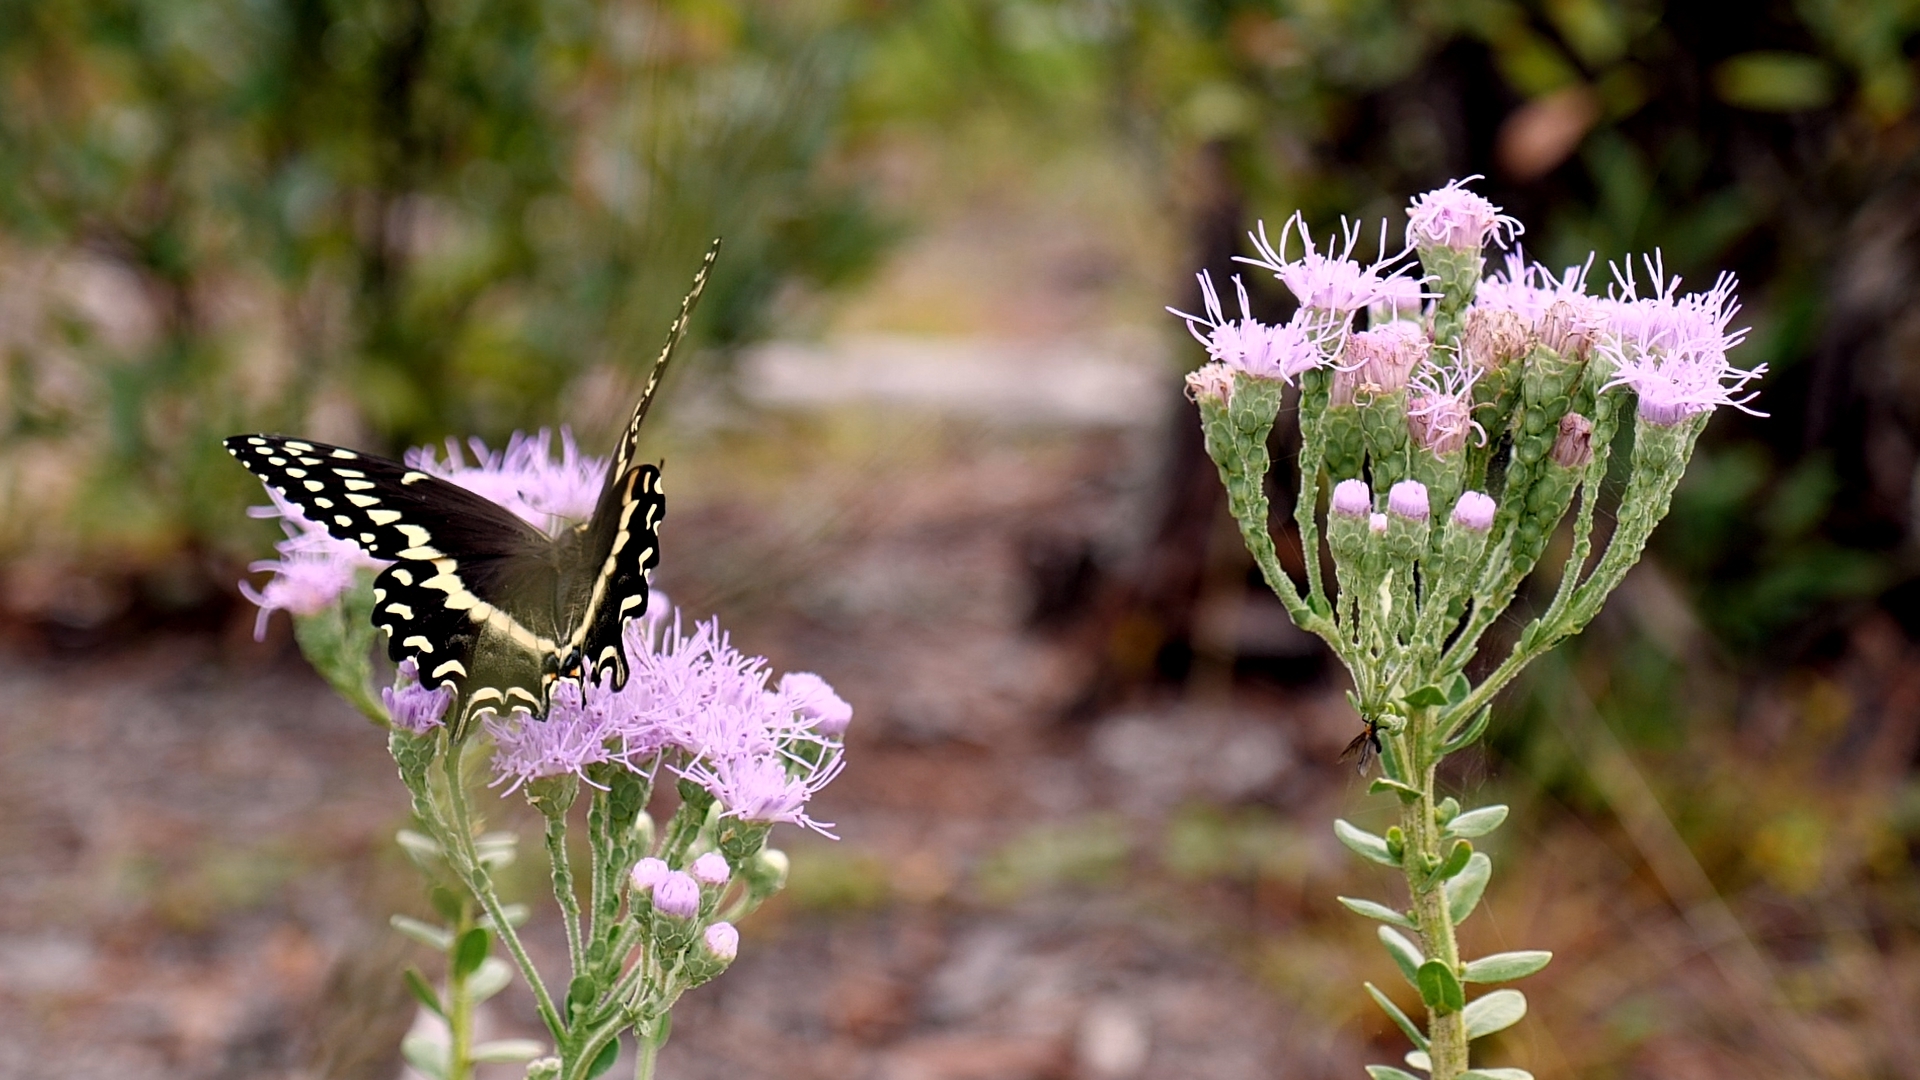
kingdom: Animalia
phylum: Arthropoda
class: Insecta
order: Lepidoptera
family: Papilionidae
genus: Papilio
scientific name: Papilio palamedes
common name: Palamedes swallowtail
